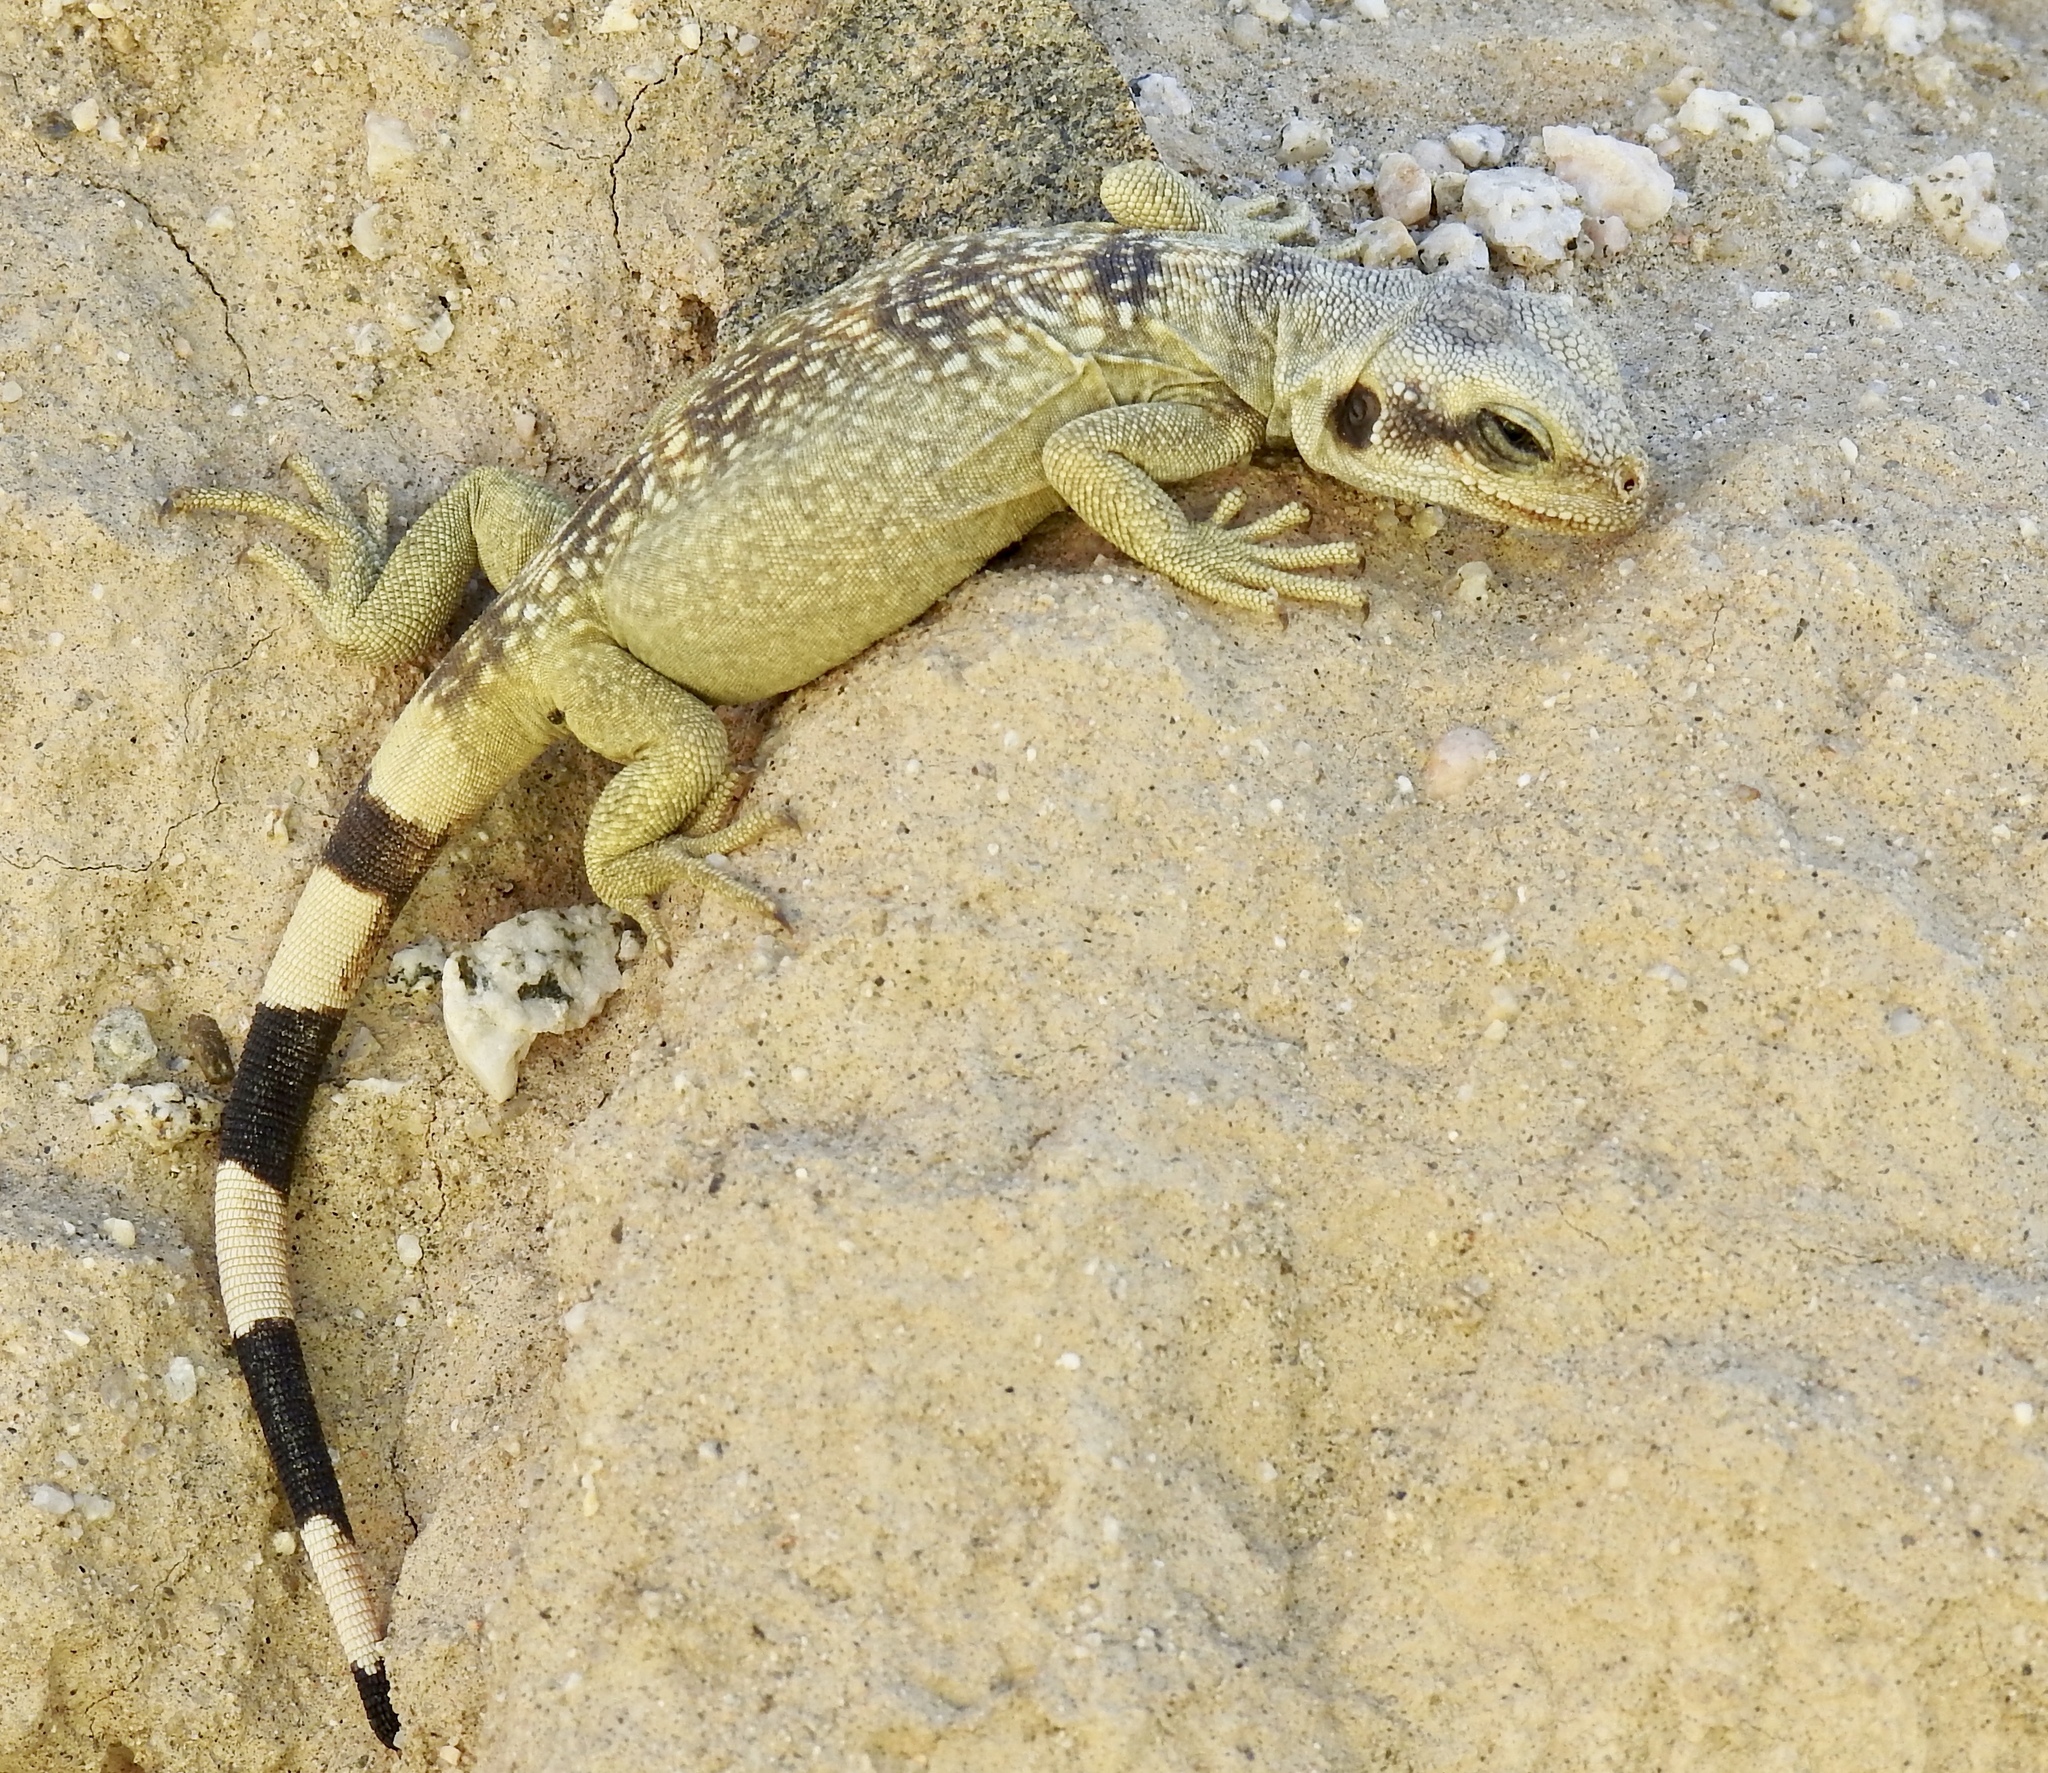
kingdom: Animalia
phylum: Chordata
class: Squamata
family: Iguanidae
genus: Sauromalus
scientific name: Sauromalus ater
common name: Northern chuckwalla
